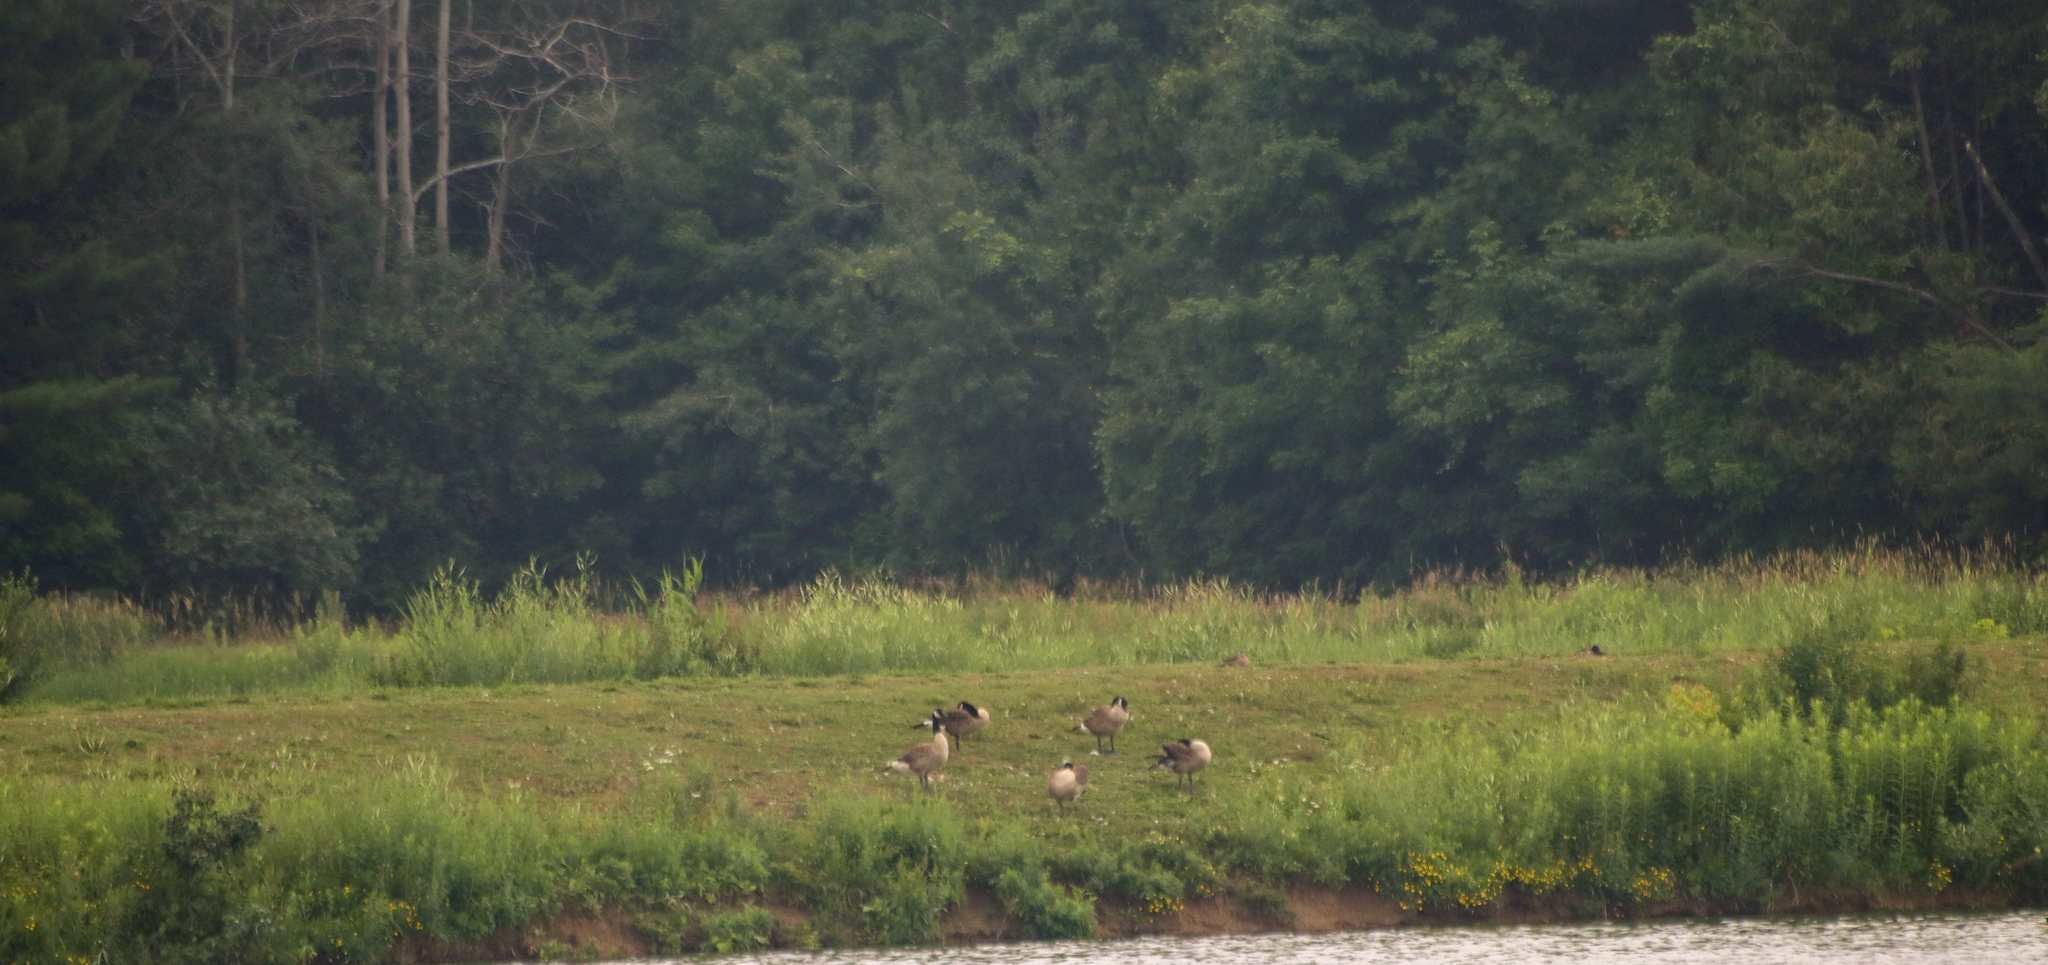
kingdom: Animalia
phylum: Chordata
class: Aves
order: Anseriformes
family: Anatidae
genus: Branta
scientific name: Branta canadensis
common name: Canada goose
